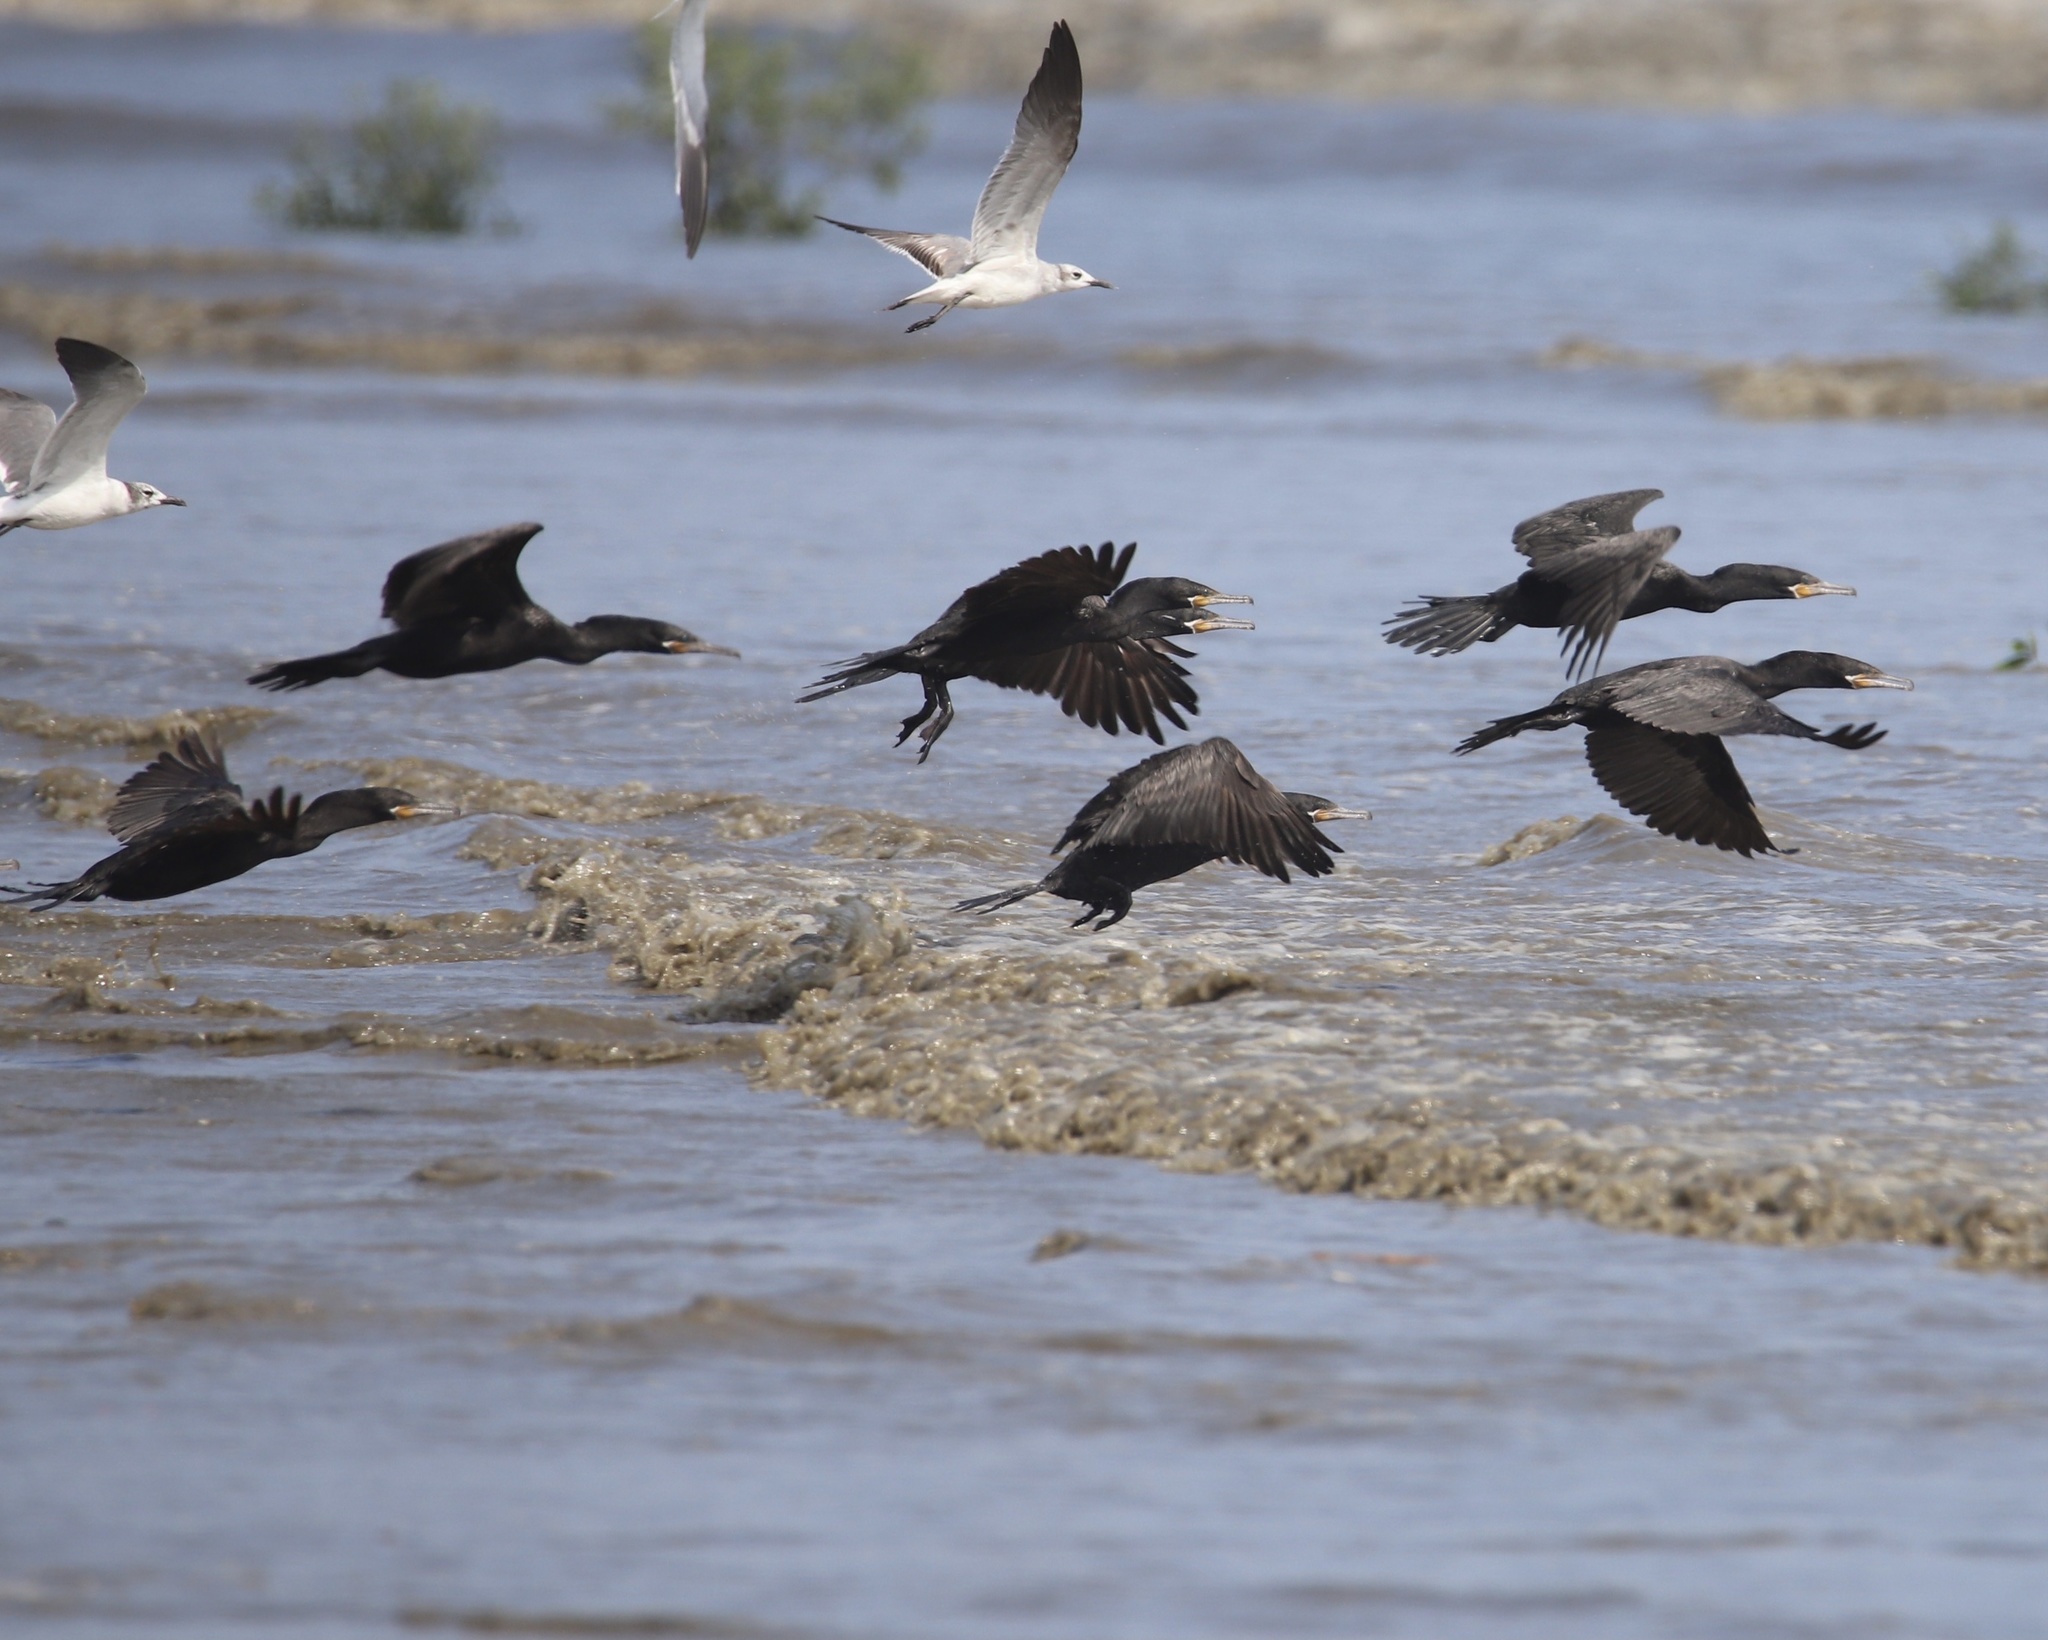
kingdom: Animalia
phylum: Chordata
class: Aves
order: Suliformes
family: Phalacrocoracidae
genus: Phalacrocorax
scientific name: Phalacrocorax brasilianus
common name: Neotropic cormorant
